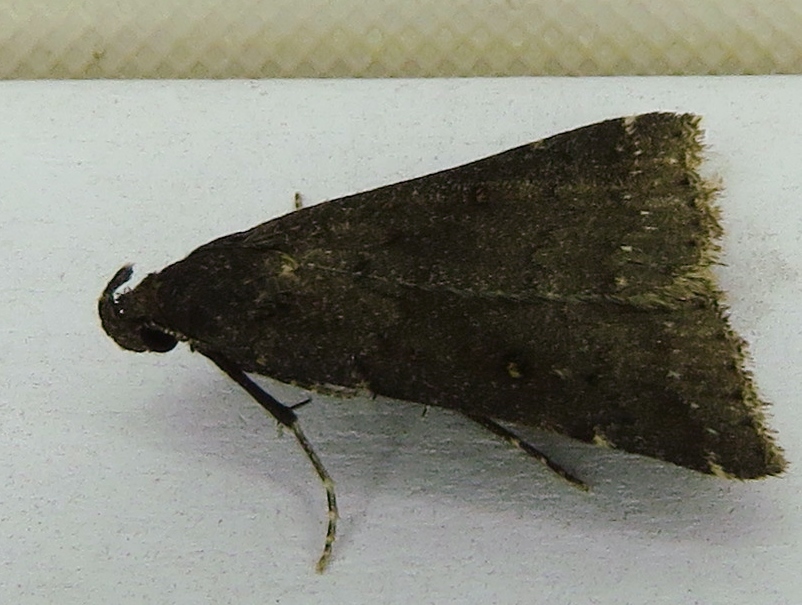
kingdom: Animalia
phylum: Arthropoda
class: Insecta
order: Lepidoptera
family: Erebidae
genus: Tetanolita
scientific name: Tetanolita mynesalis
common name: Smoky tetanolita moth
